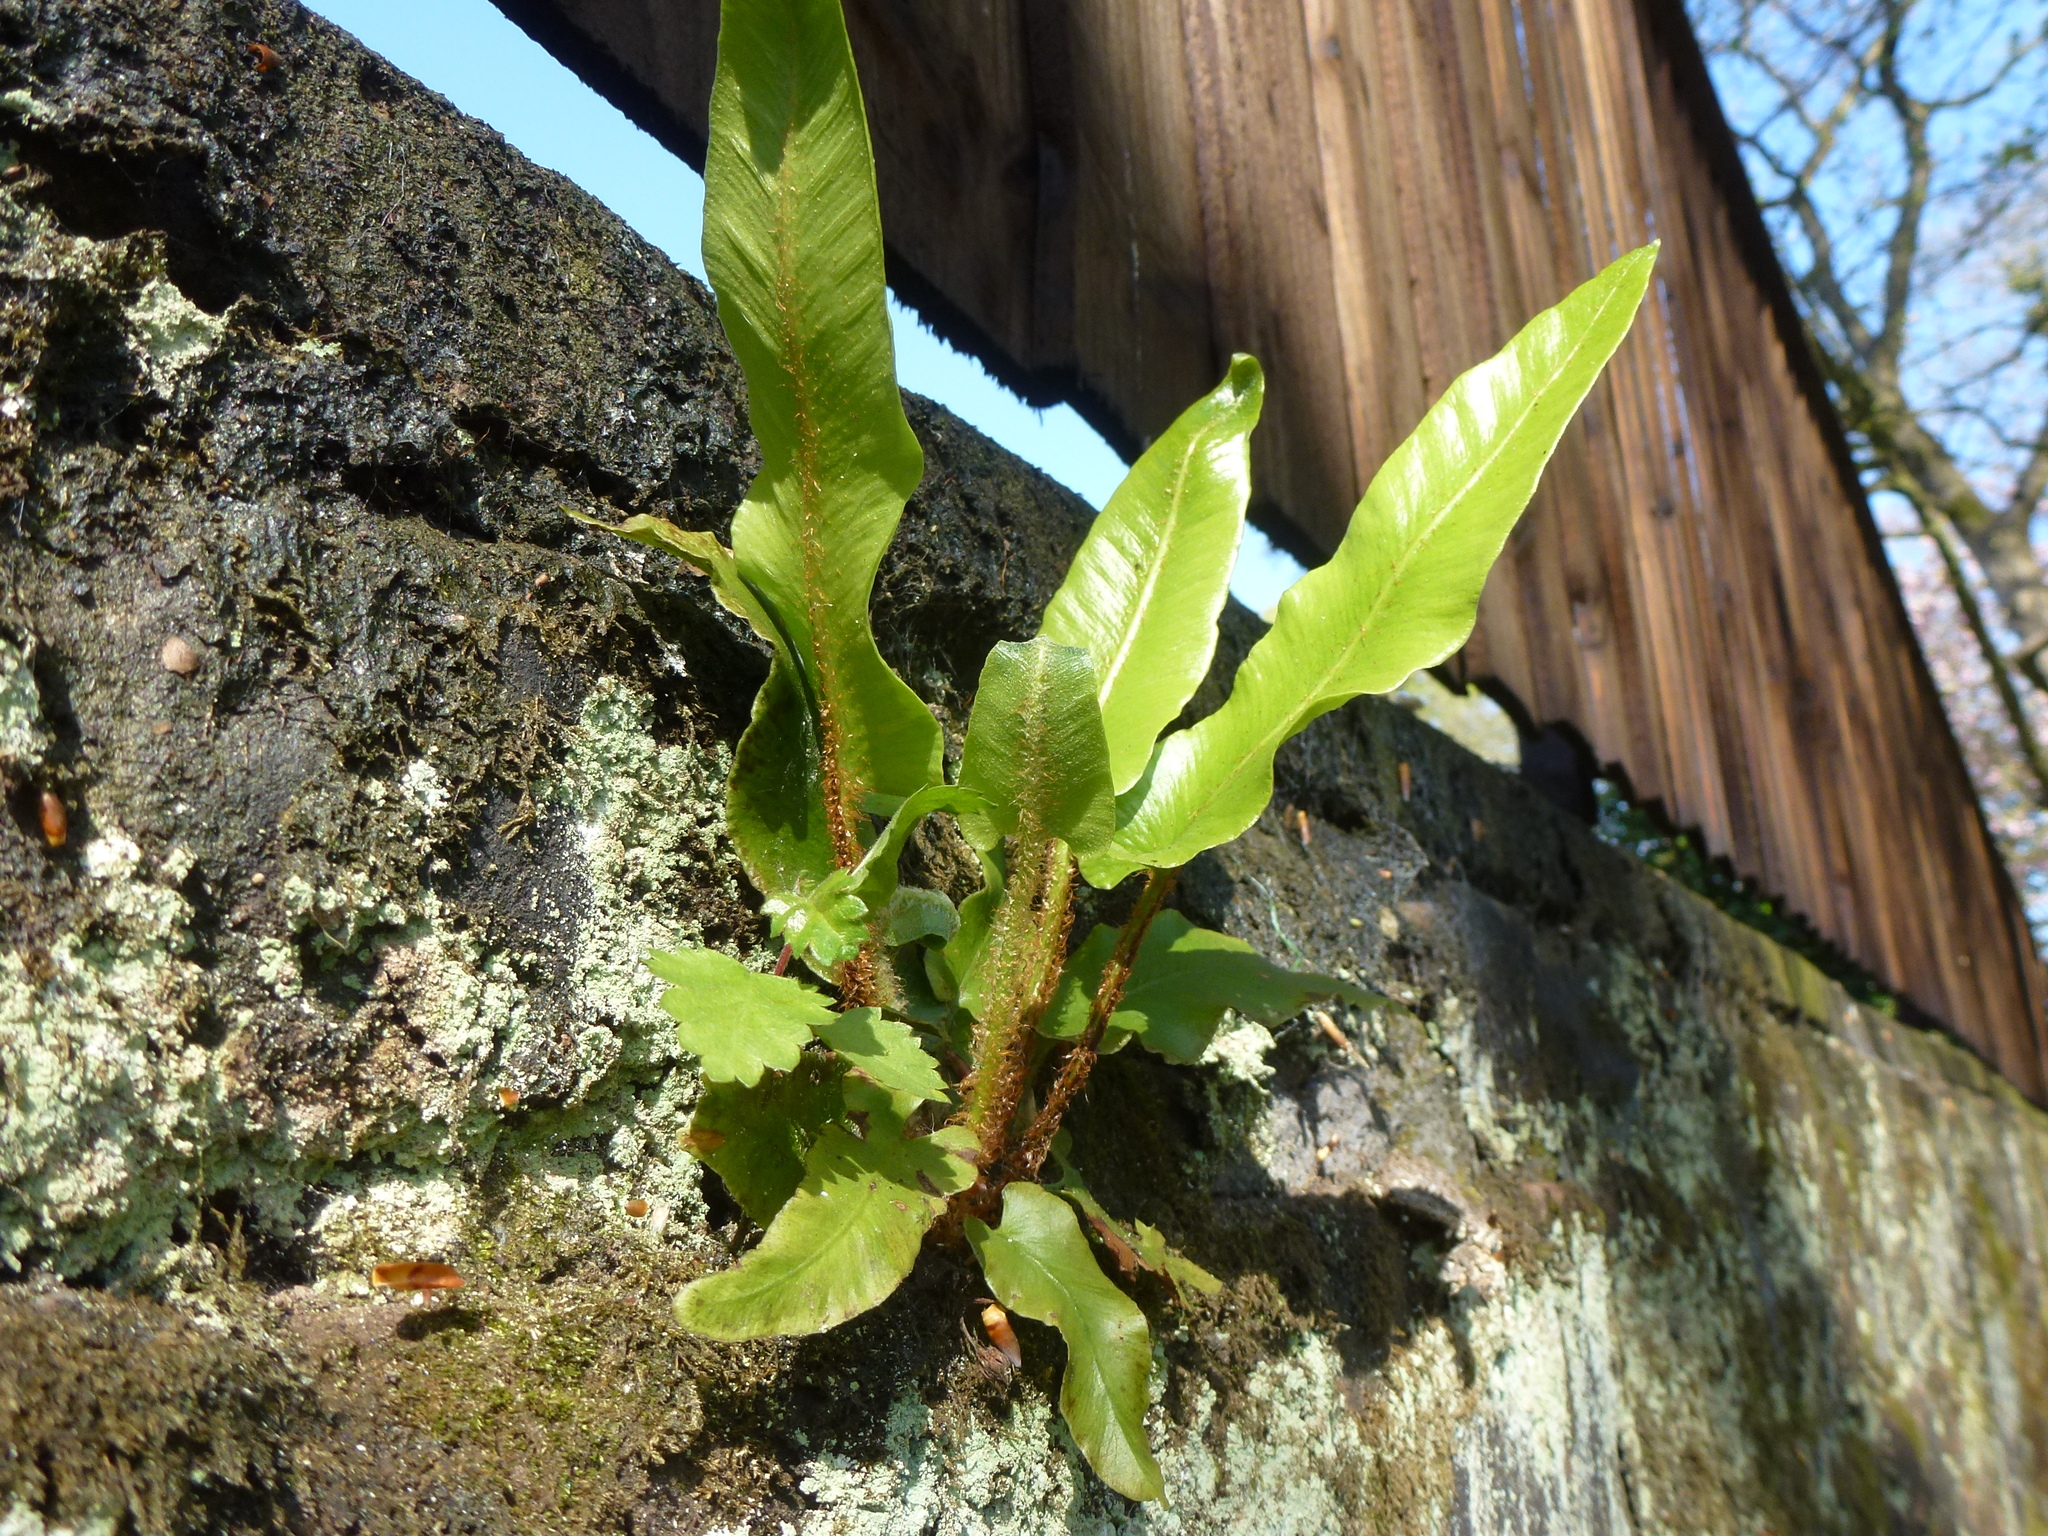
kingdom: Plantae
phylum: Tracheophyta
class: Polypodiopsida
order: Polypodiales
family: Aspleniaceae
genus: Asplenium
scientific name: Asplenium scolopendrium
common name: Hart's-tongue fern
